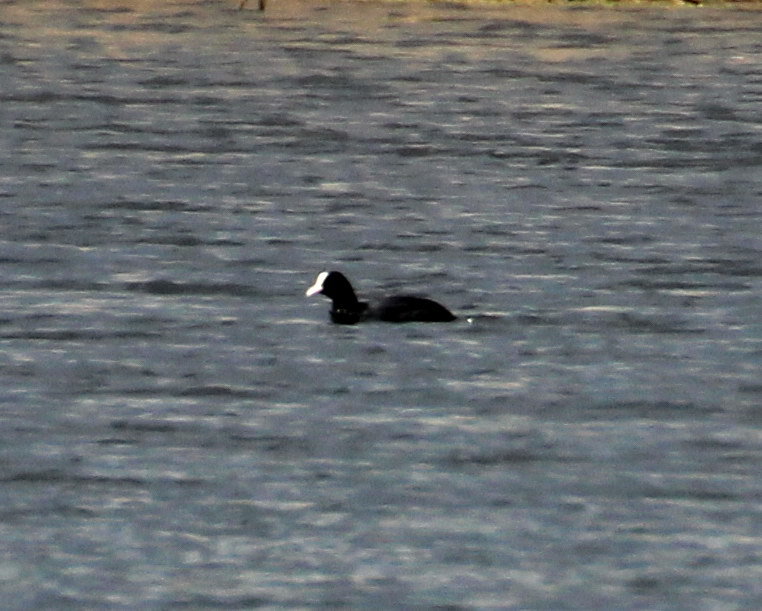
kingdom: Animalia
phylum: Chordata
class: Aves
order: Gruiformes
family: Rallidae
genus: Fulica
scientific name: Fulica atra
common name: Eurasian coot
